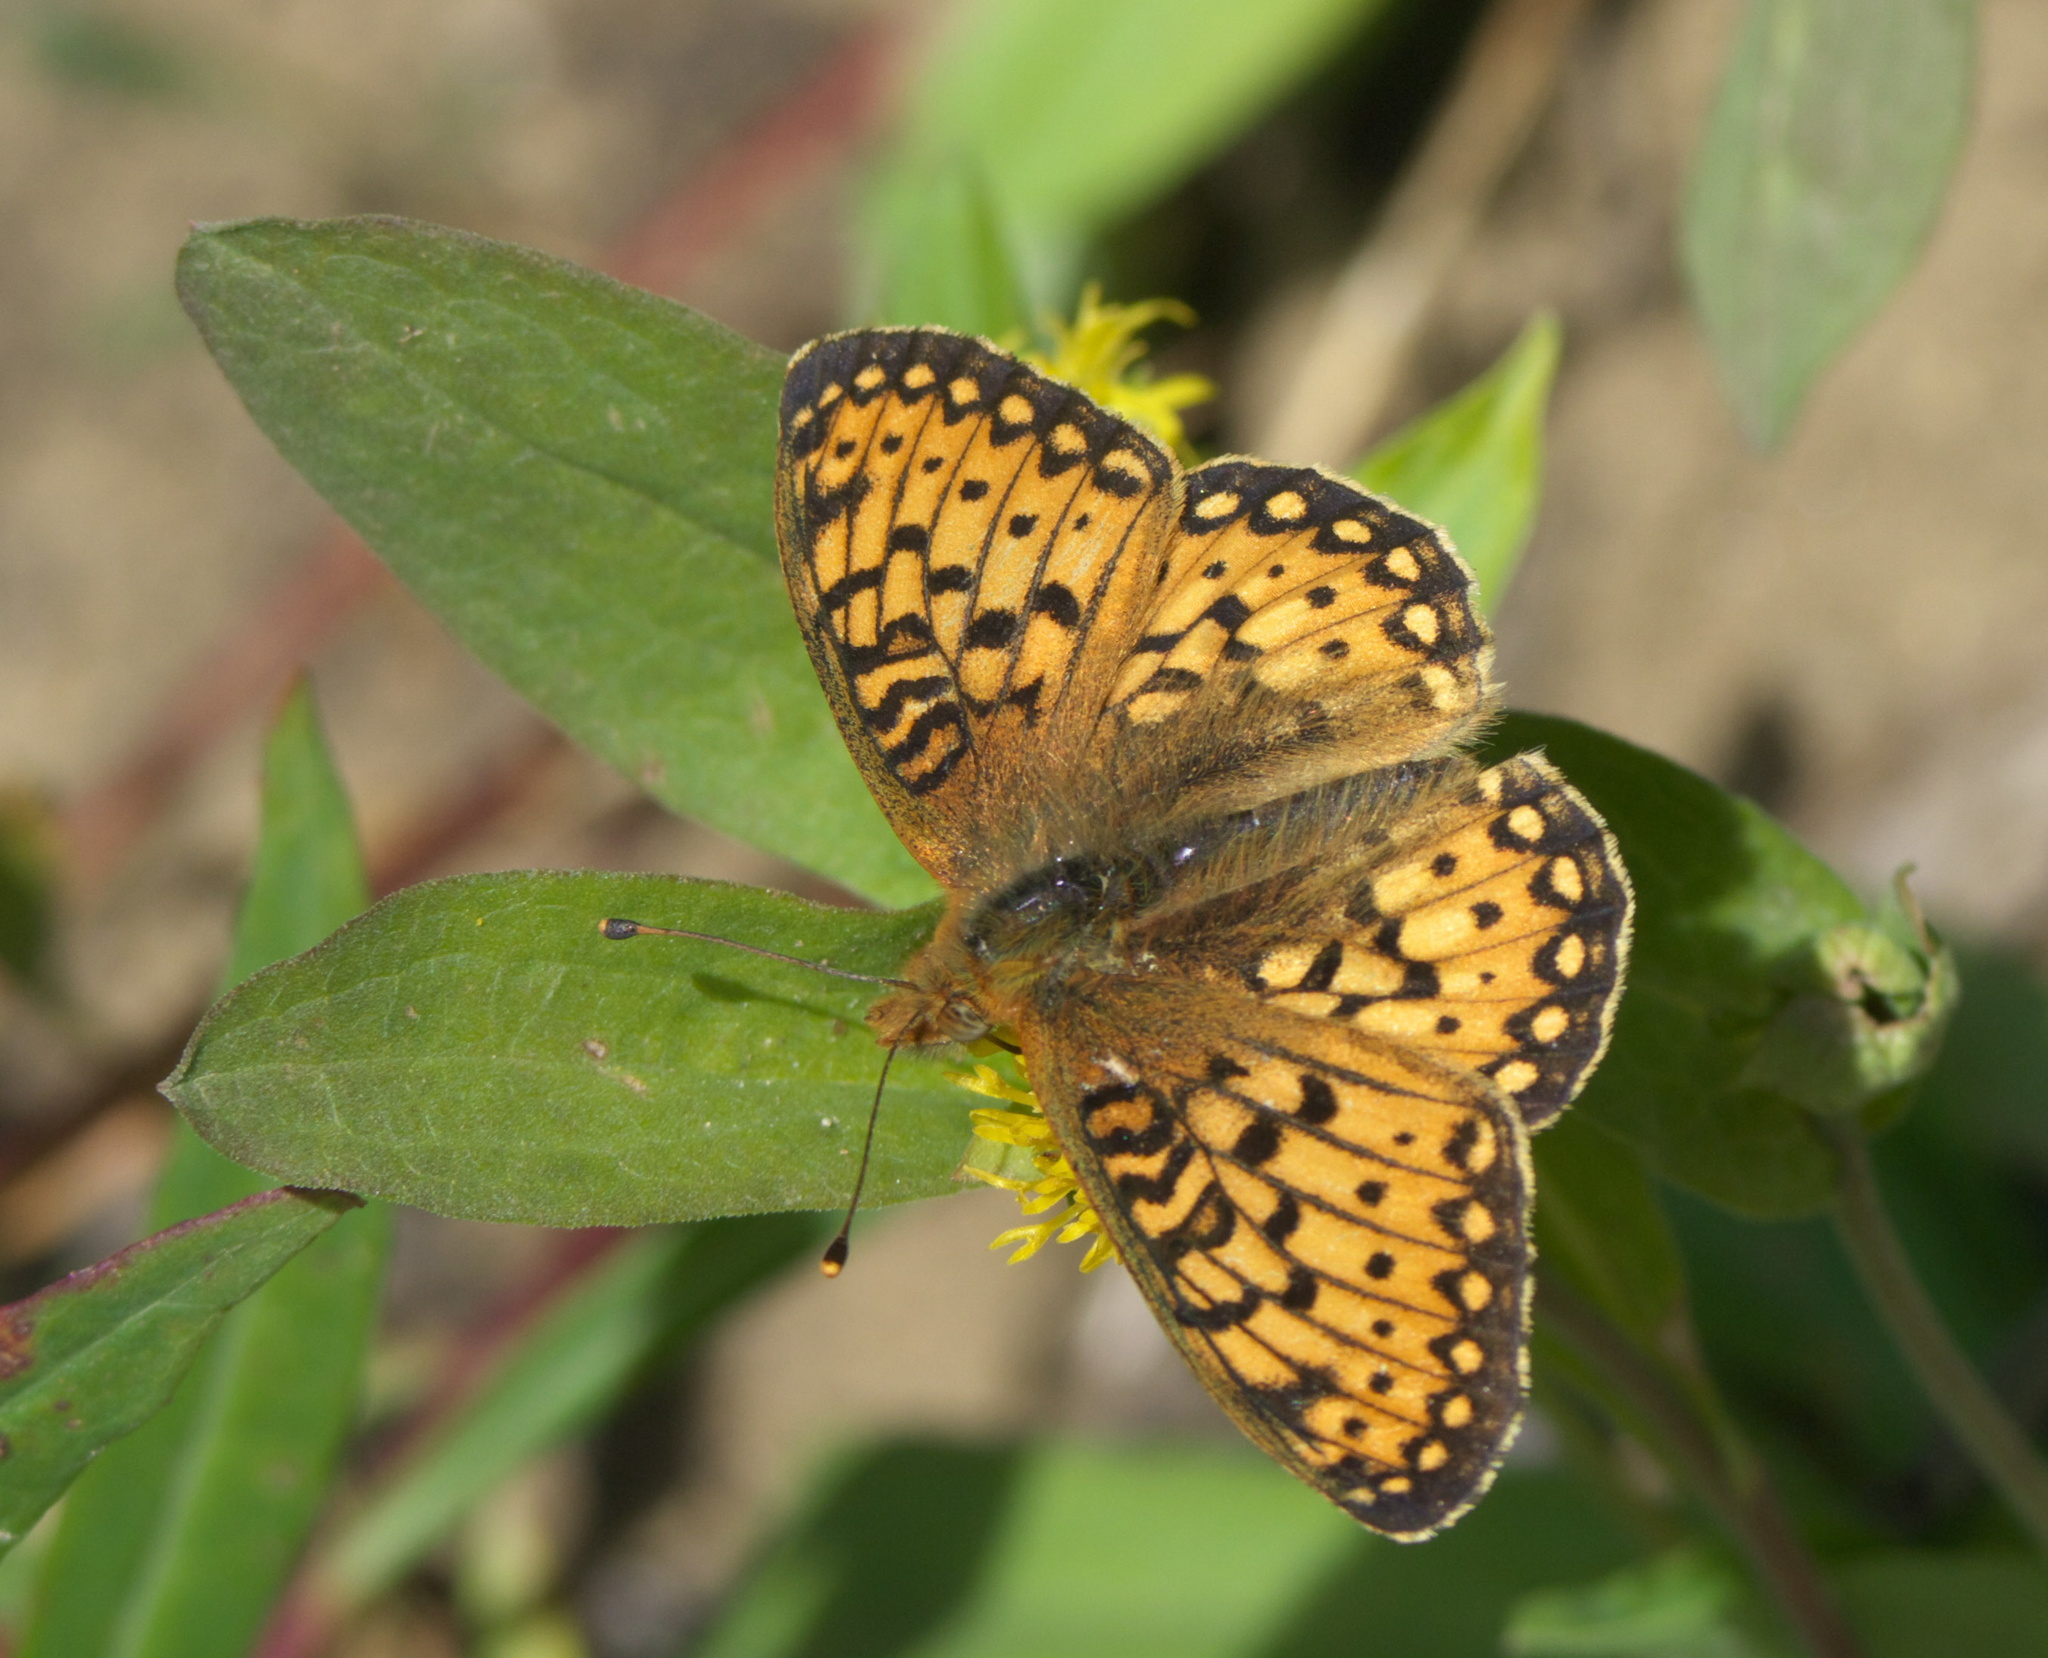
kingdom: Animalia
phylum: Arthropoda
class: Insecta
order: Lepidoptera
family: Nymphalidae
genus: Speyeria
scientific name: Speyeria mormonia
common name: Mormon fritillary
